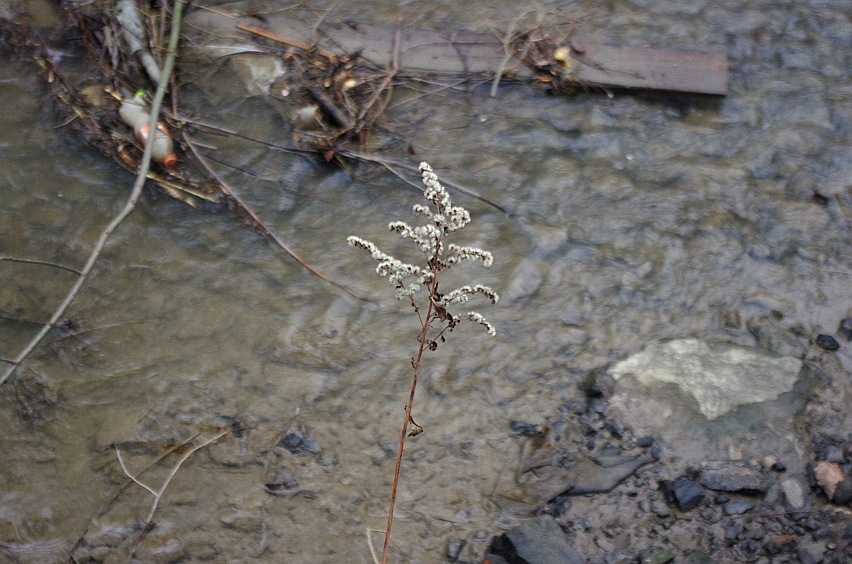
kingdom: Plantae
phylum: Tracheophyta
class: Magnoliopsida
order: Asterales
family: Asteraceae
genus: Solidago
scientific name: Solidago gigantea
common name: Giant goldenrod
